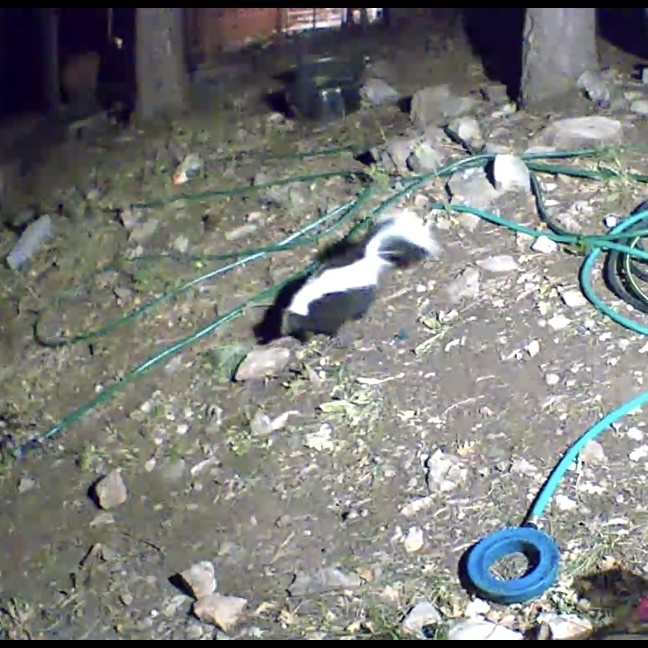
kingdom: Animalia
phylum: Chordata
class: Mammalia
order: Carnivora
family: Mephitidae
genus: Mephitis
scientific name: Mephitis mephitis
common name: Striped skunk
